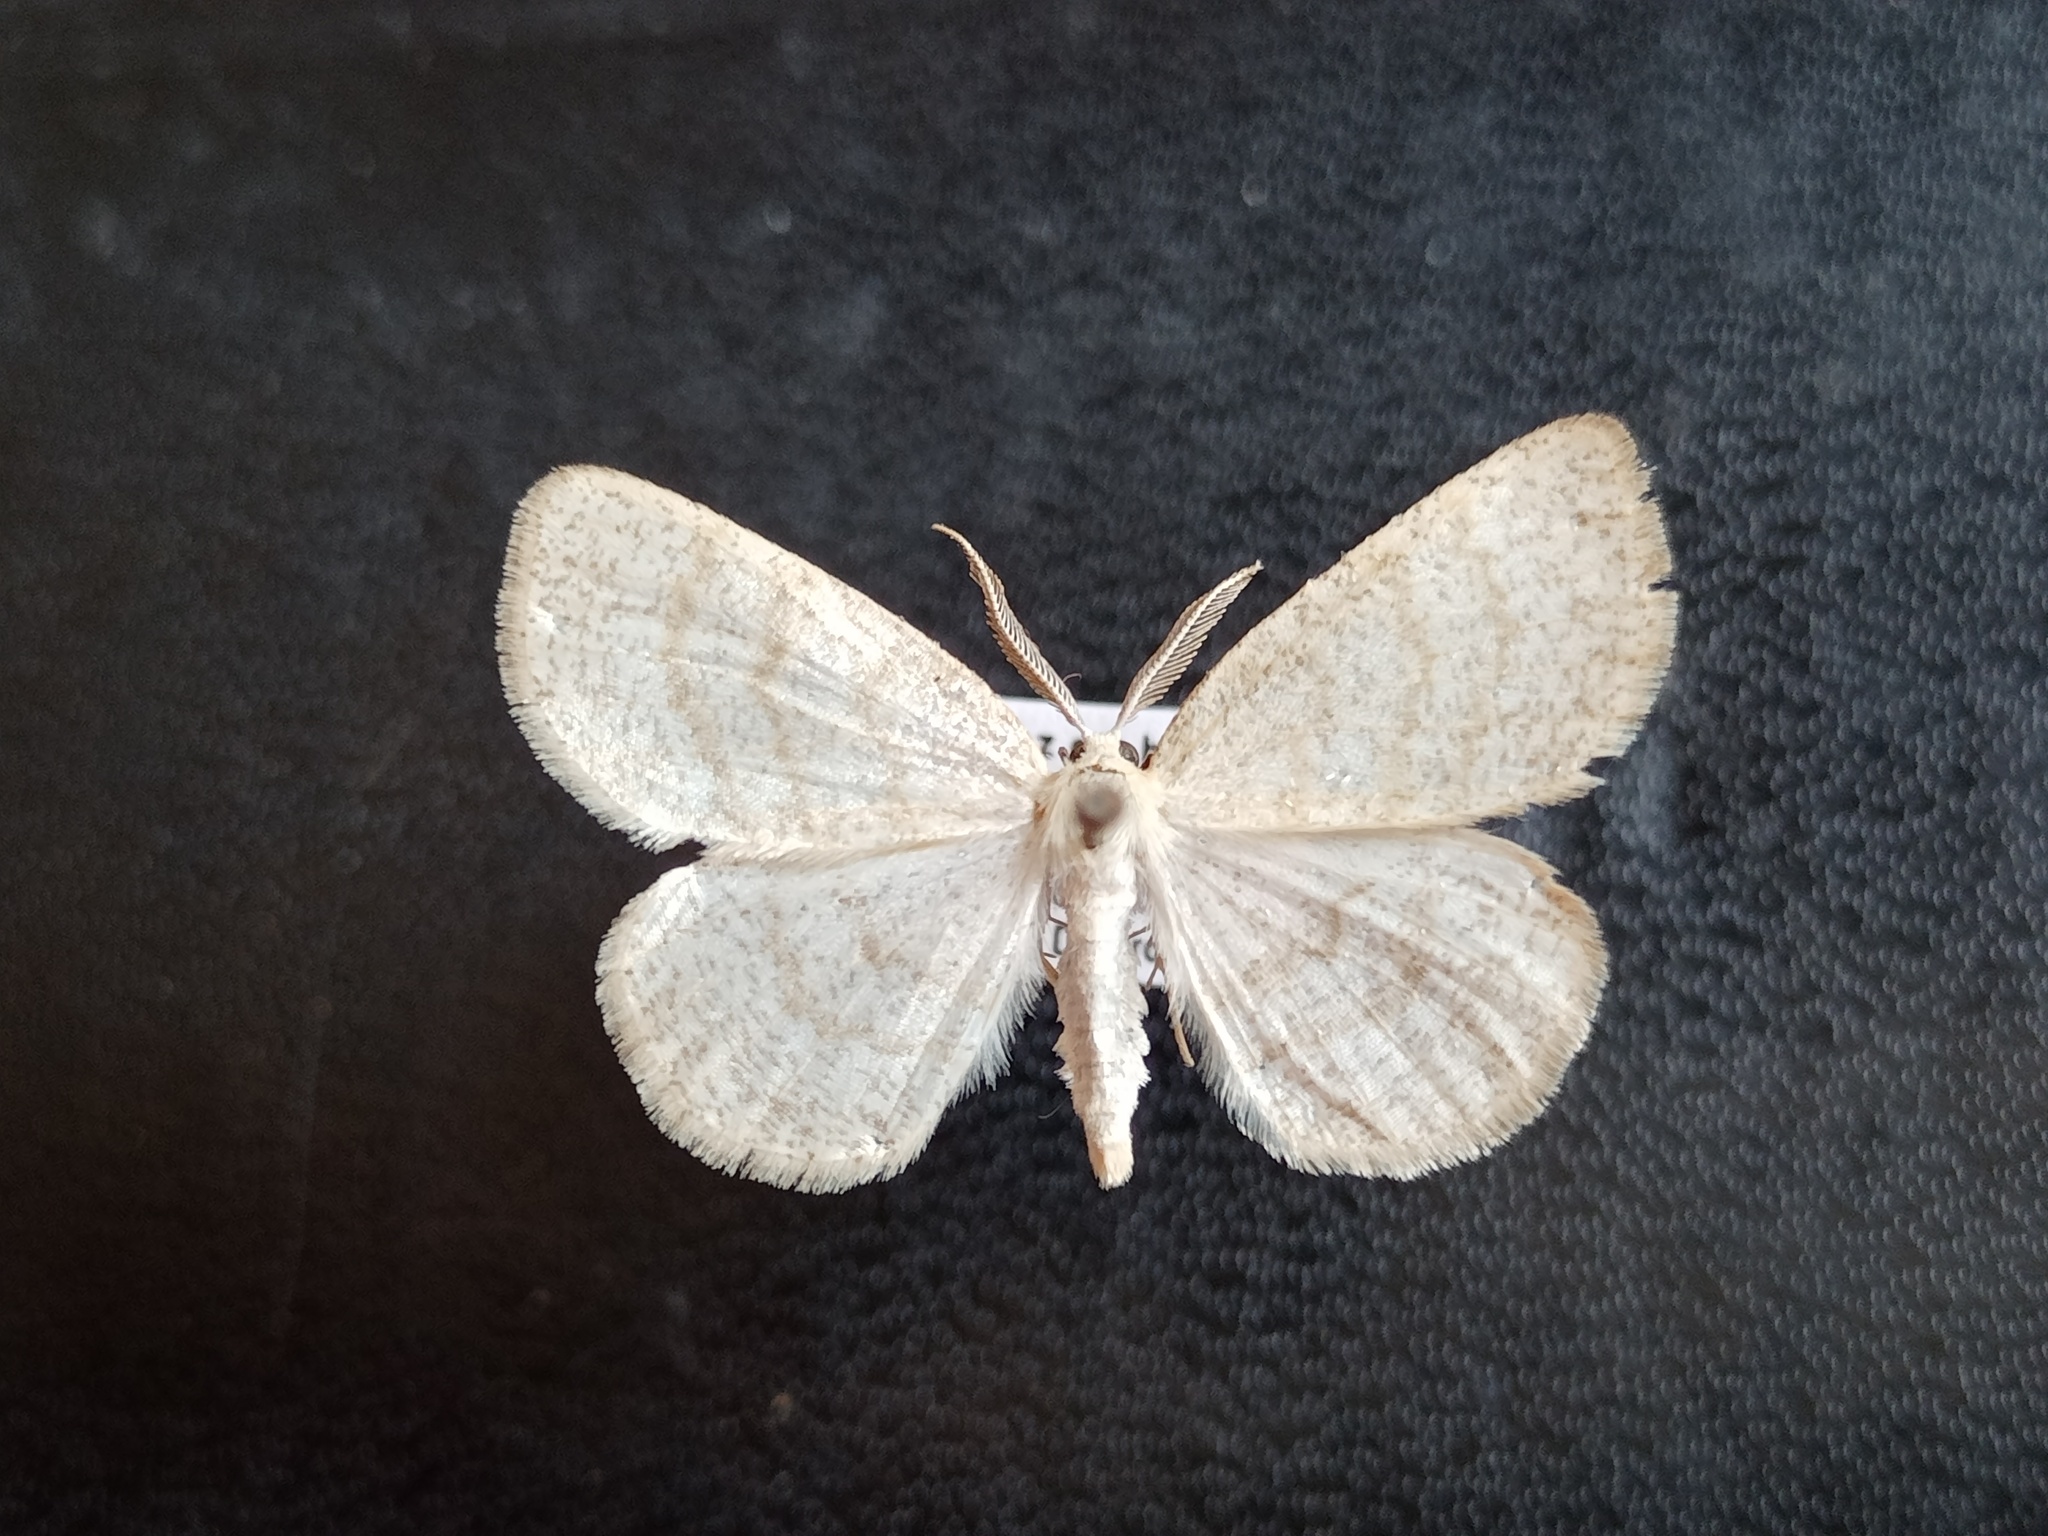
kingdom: Animalia
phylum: Arthropoda
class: Insecta
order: Lepidoptera
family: Geometridae
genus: Cabera
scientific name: Cabera exanthemata
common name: Common wave
